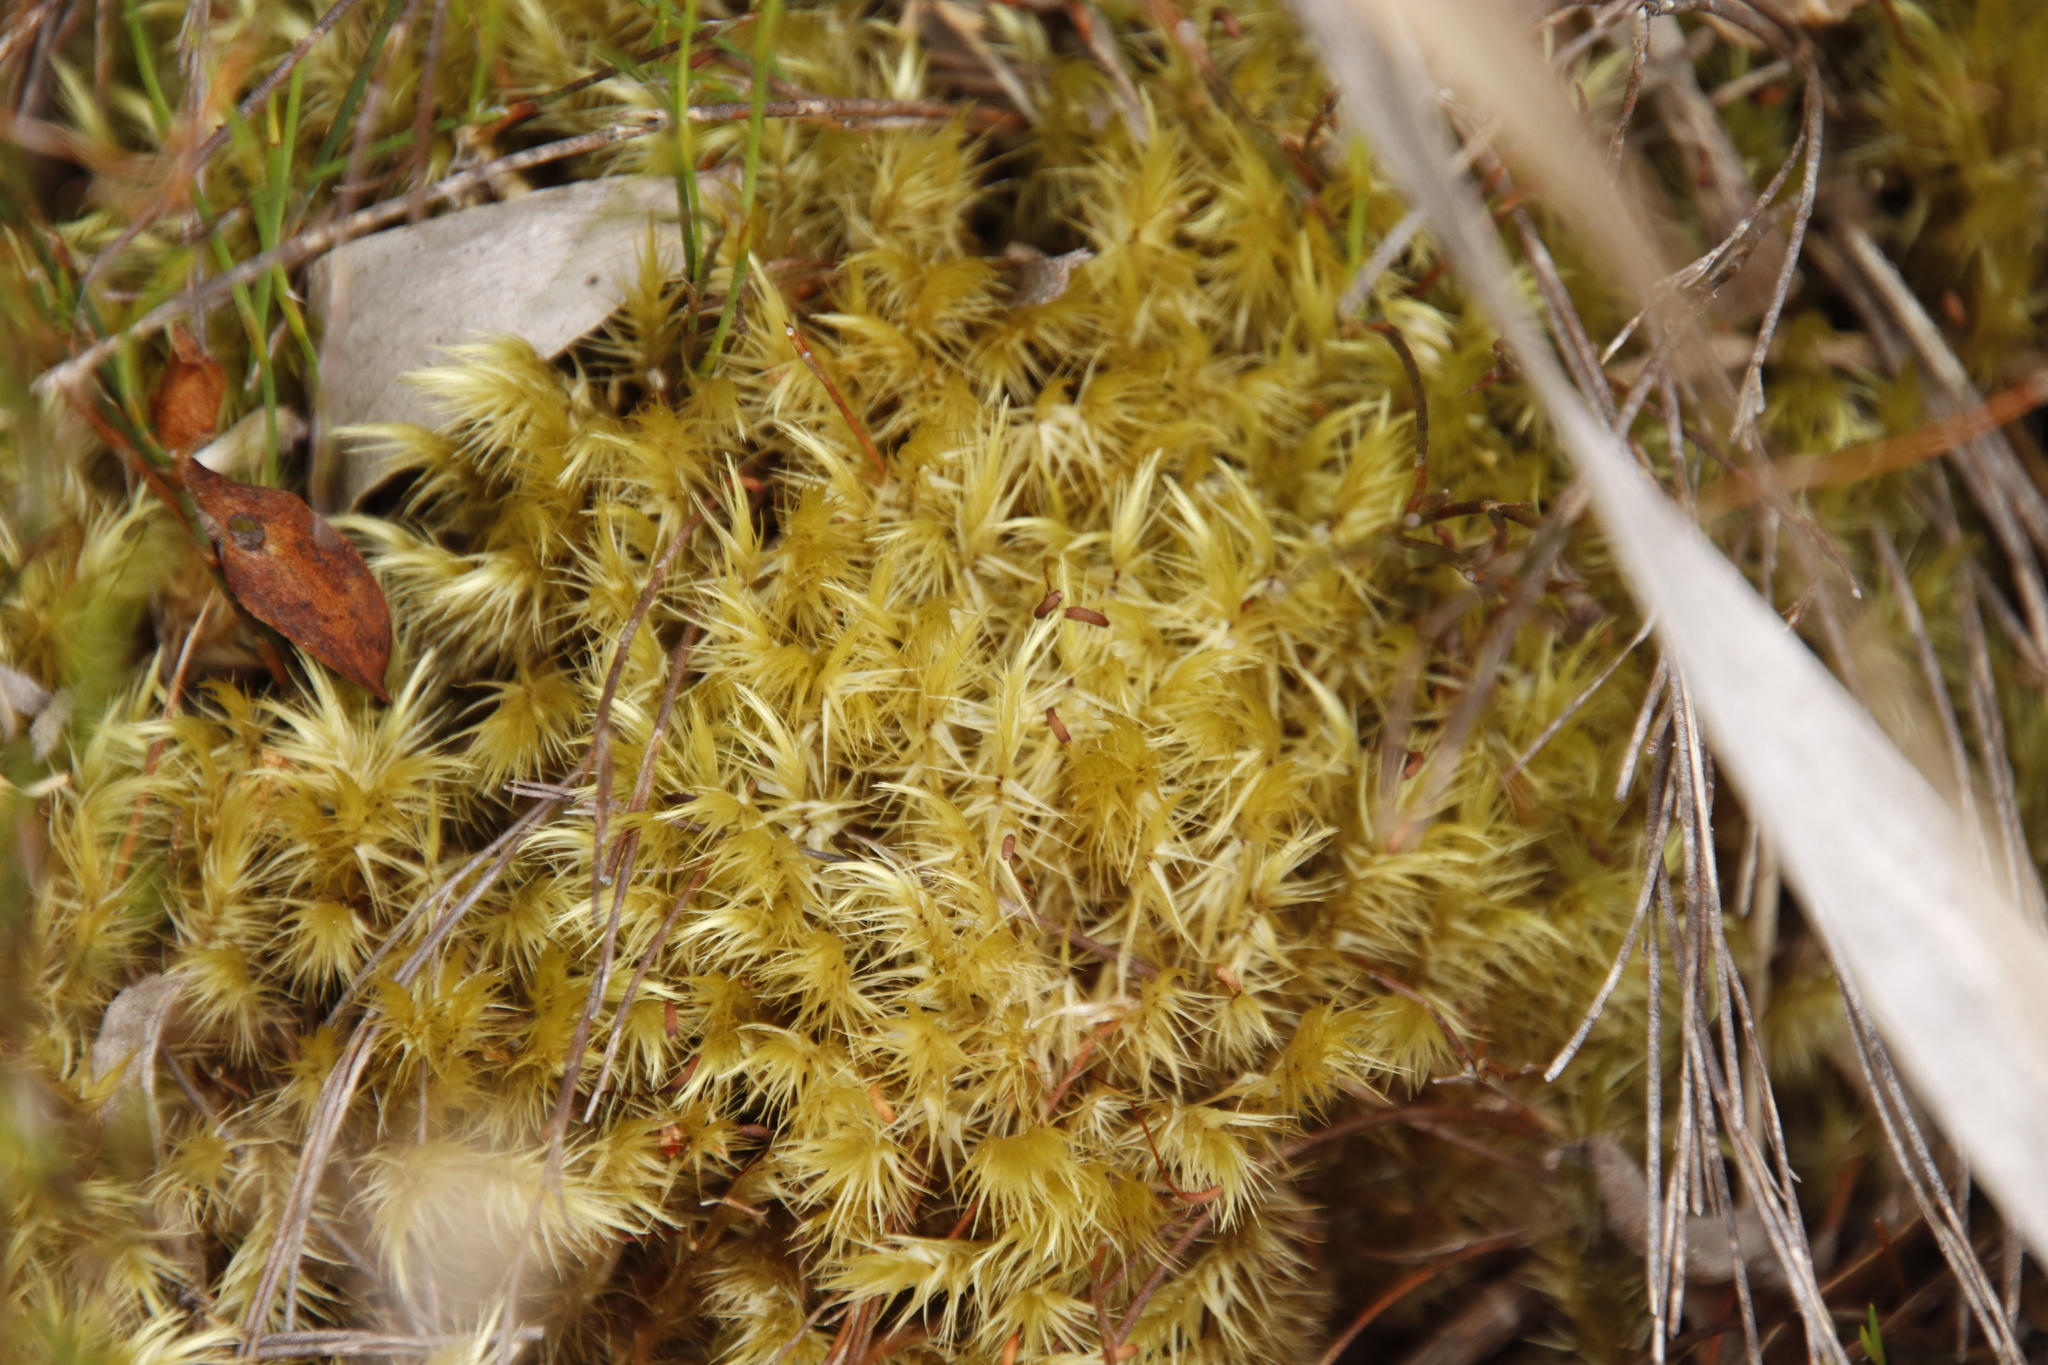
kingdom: Plantae
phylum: Bryophyta
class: Bryopsida
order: Dicranales
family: Dicranaceae
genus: Dicranoloma
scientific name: Dicranoloma billardieri
